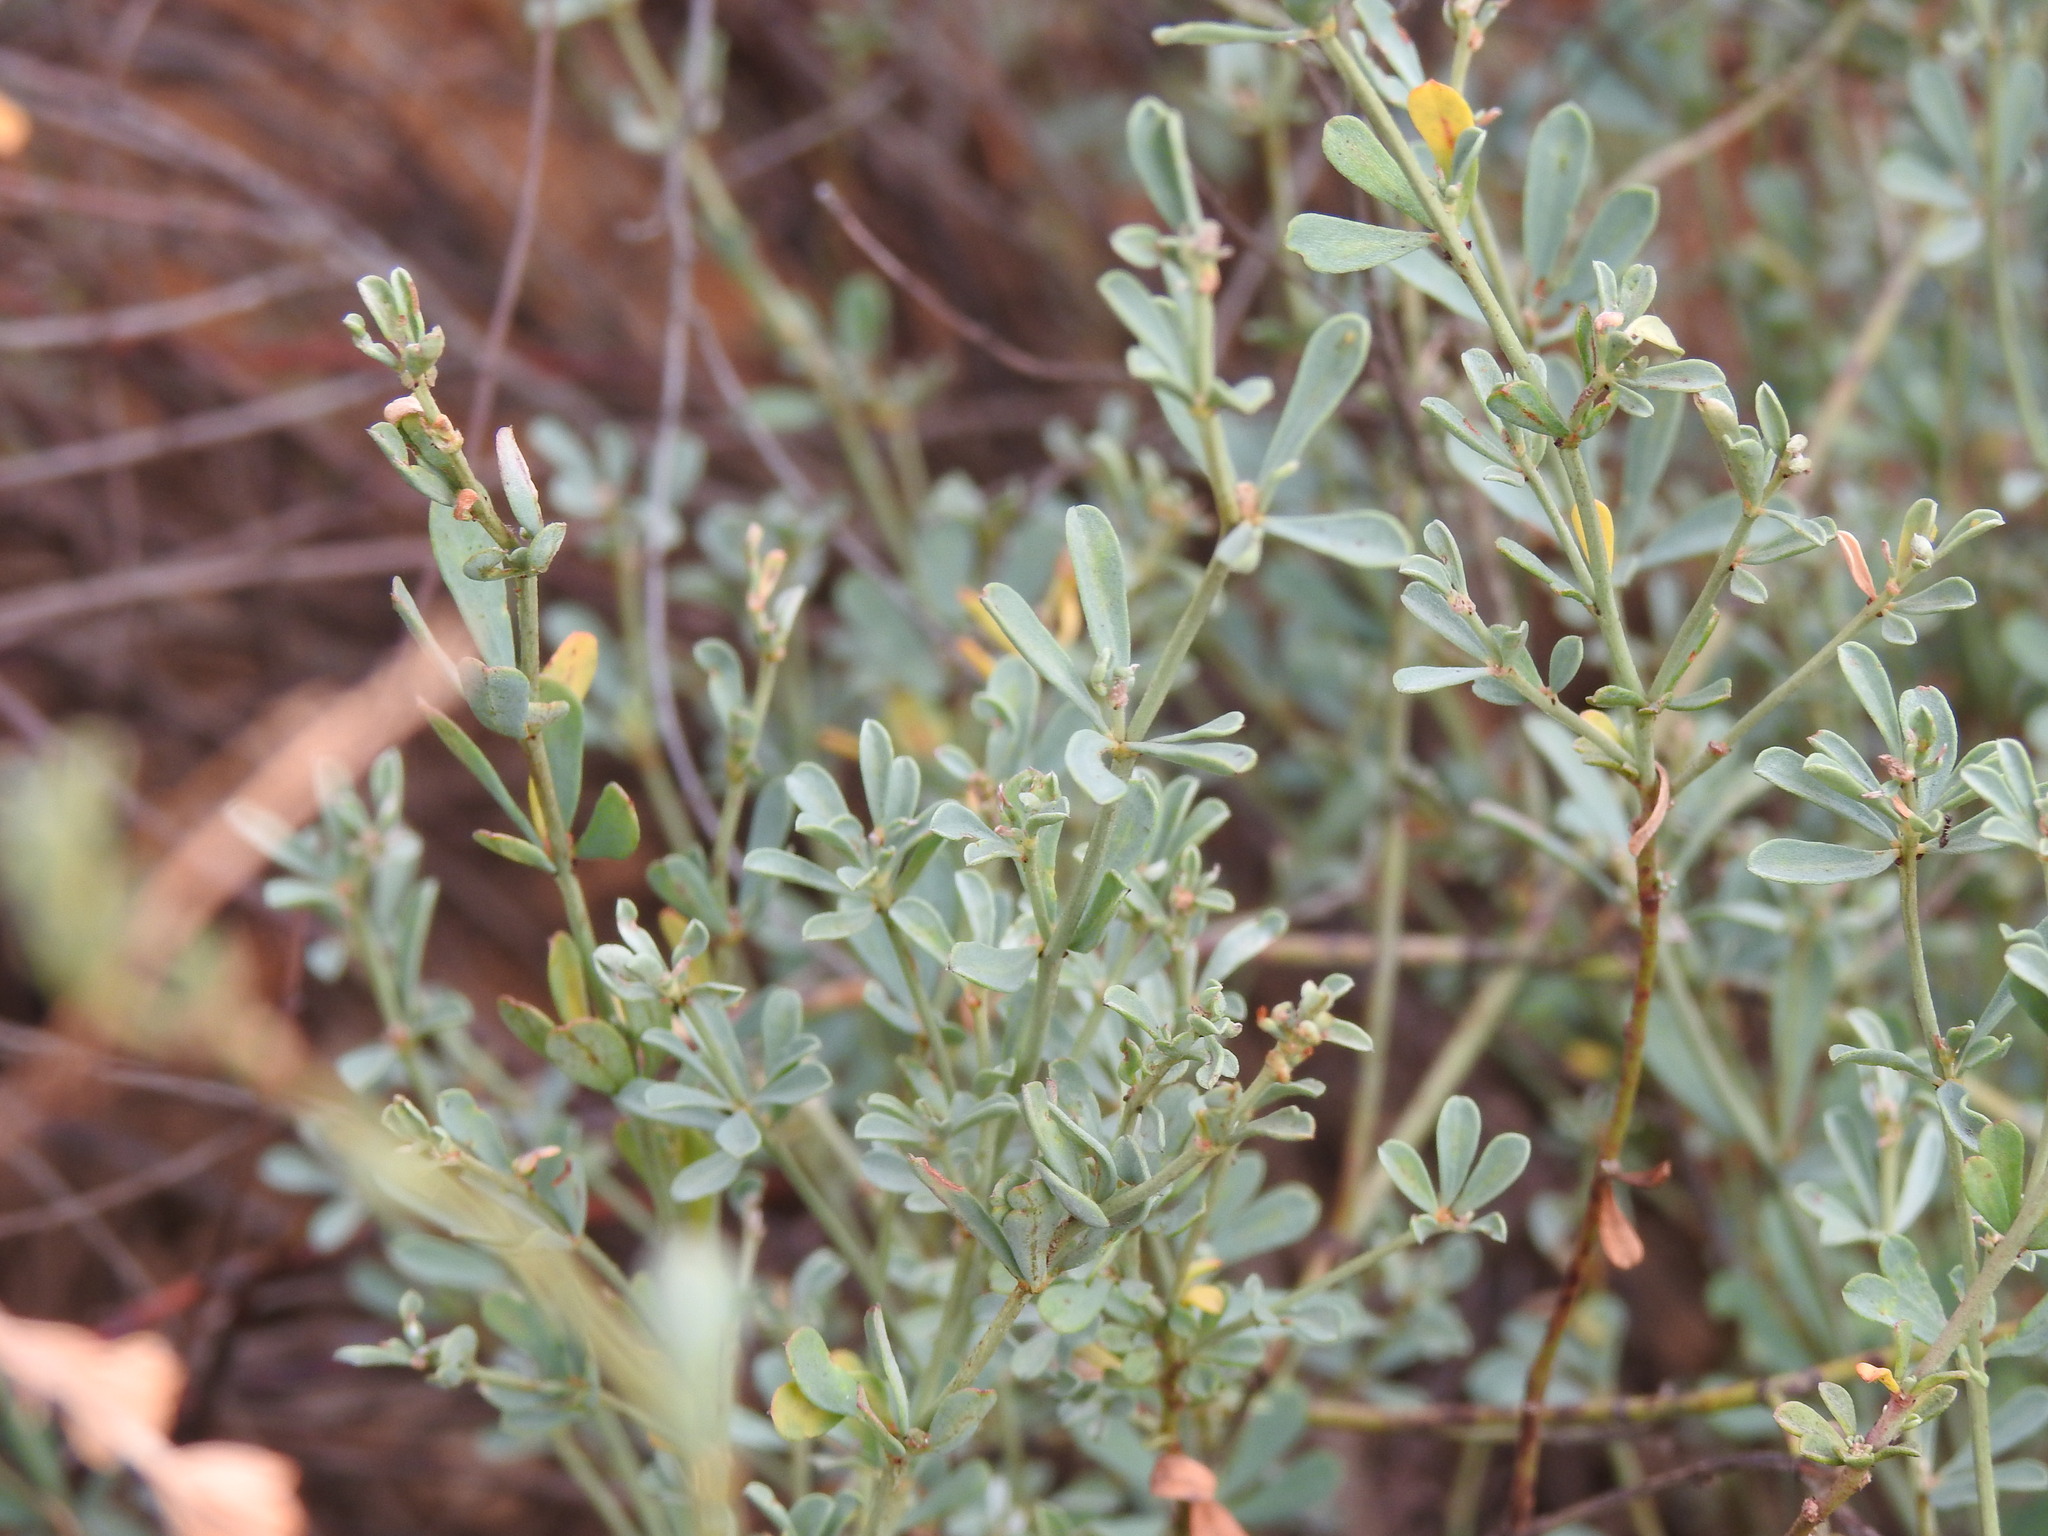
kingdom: Plantae
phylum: Tracheophyta
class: Magnoliopsida
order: Fabales
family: Fabaceae
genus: Lotus
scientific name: Lotus dorycnium
